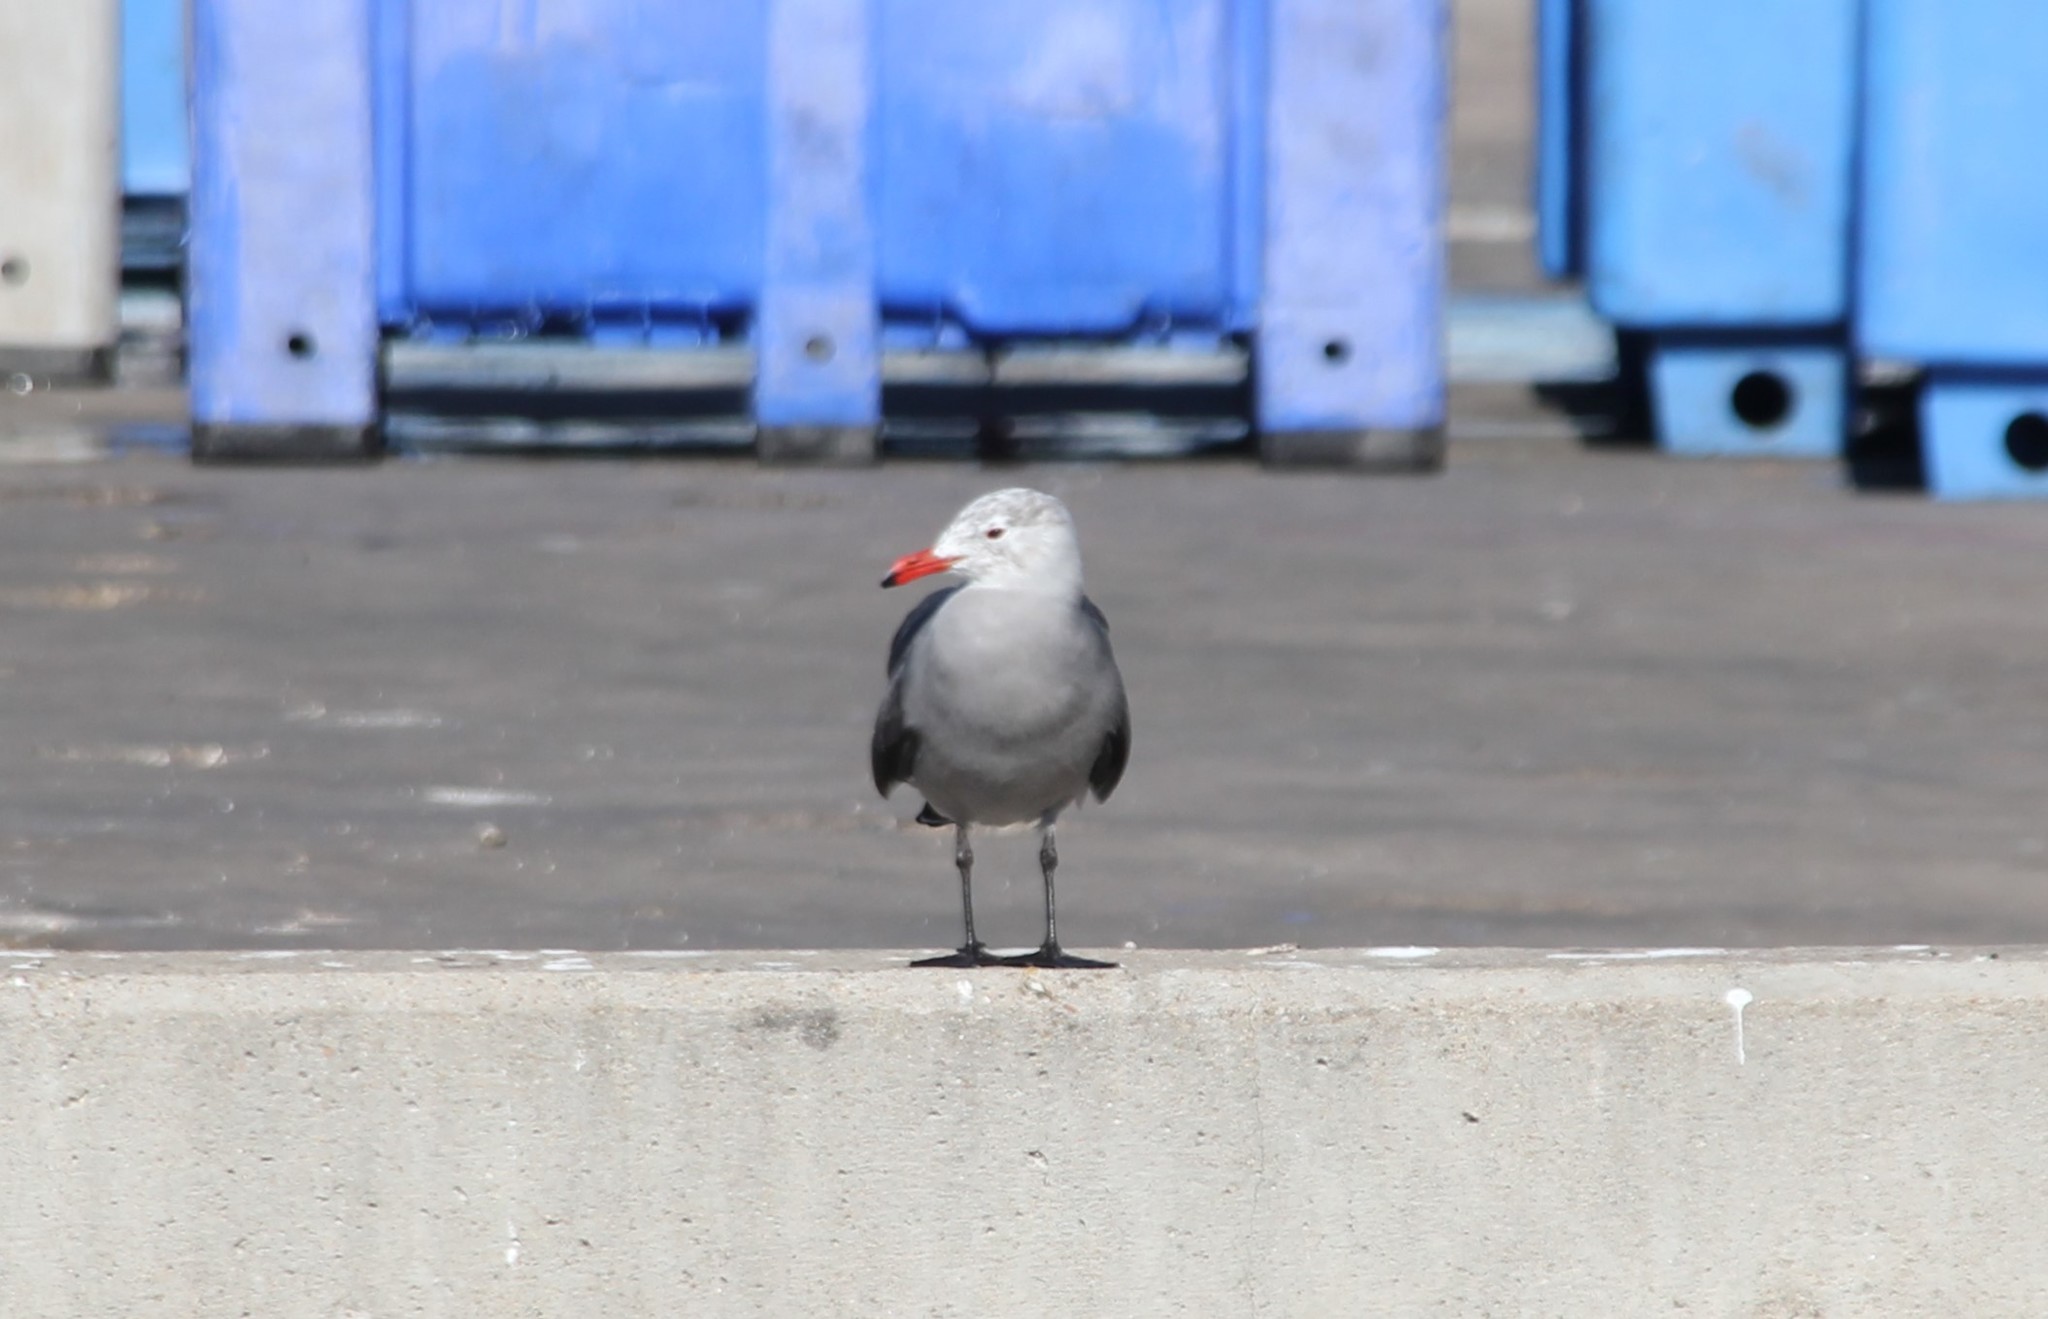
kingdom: Animalia
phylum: Chordata
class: Aves
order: Charadriiformes
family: Laridae
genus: Larus
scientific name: Larus heermanni
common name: Heermann's gull
